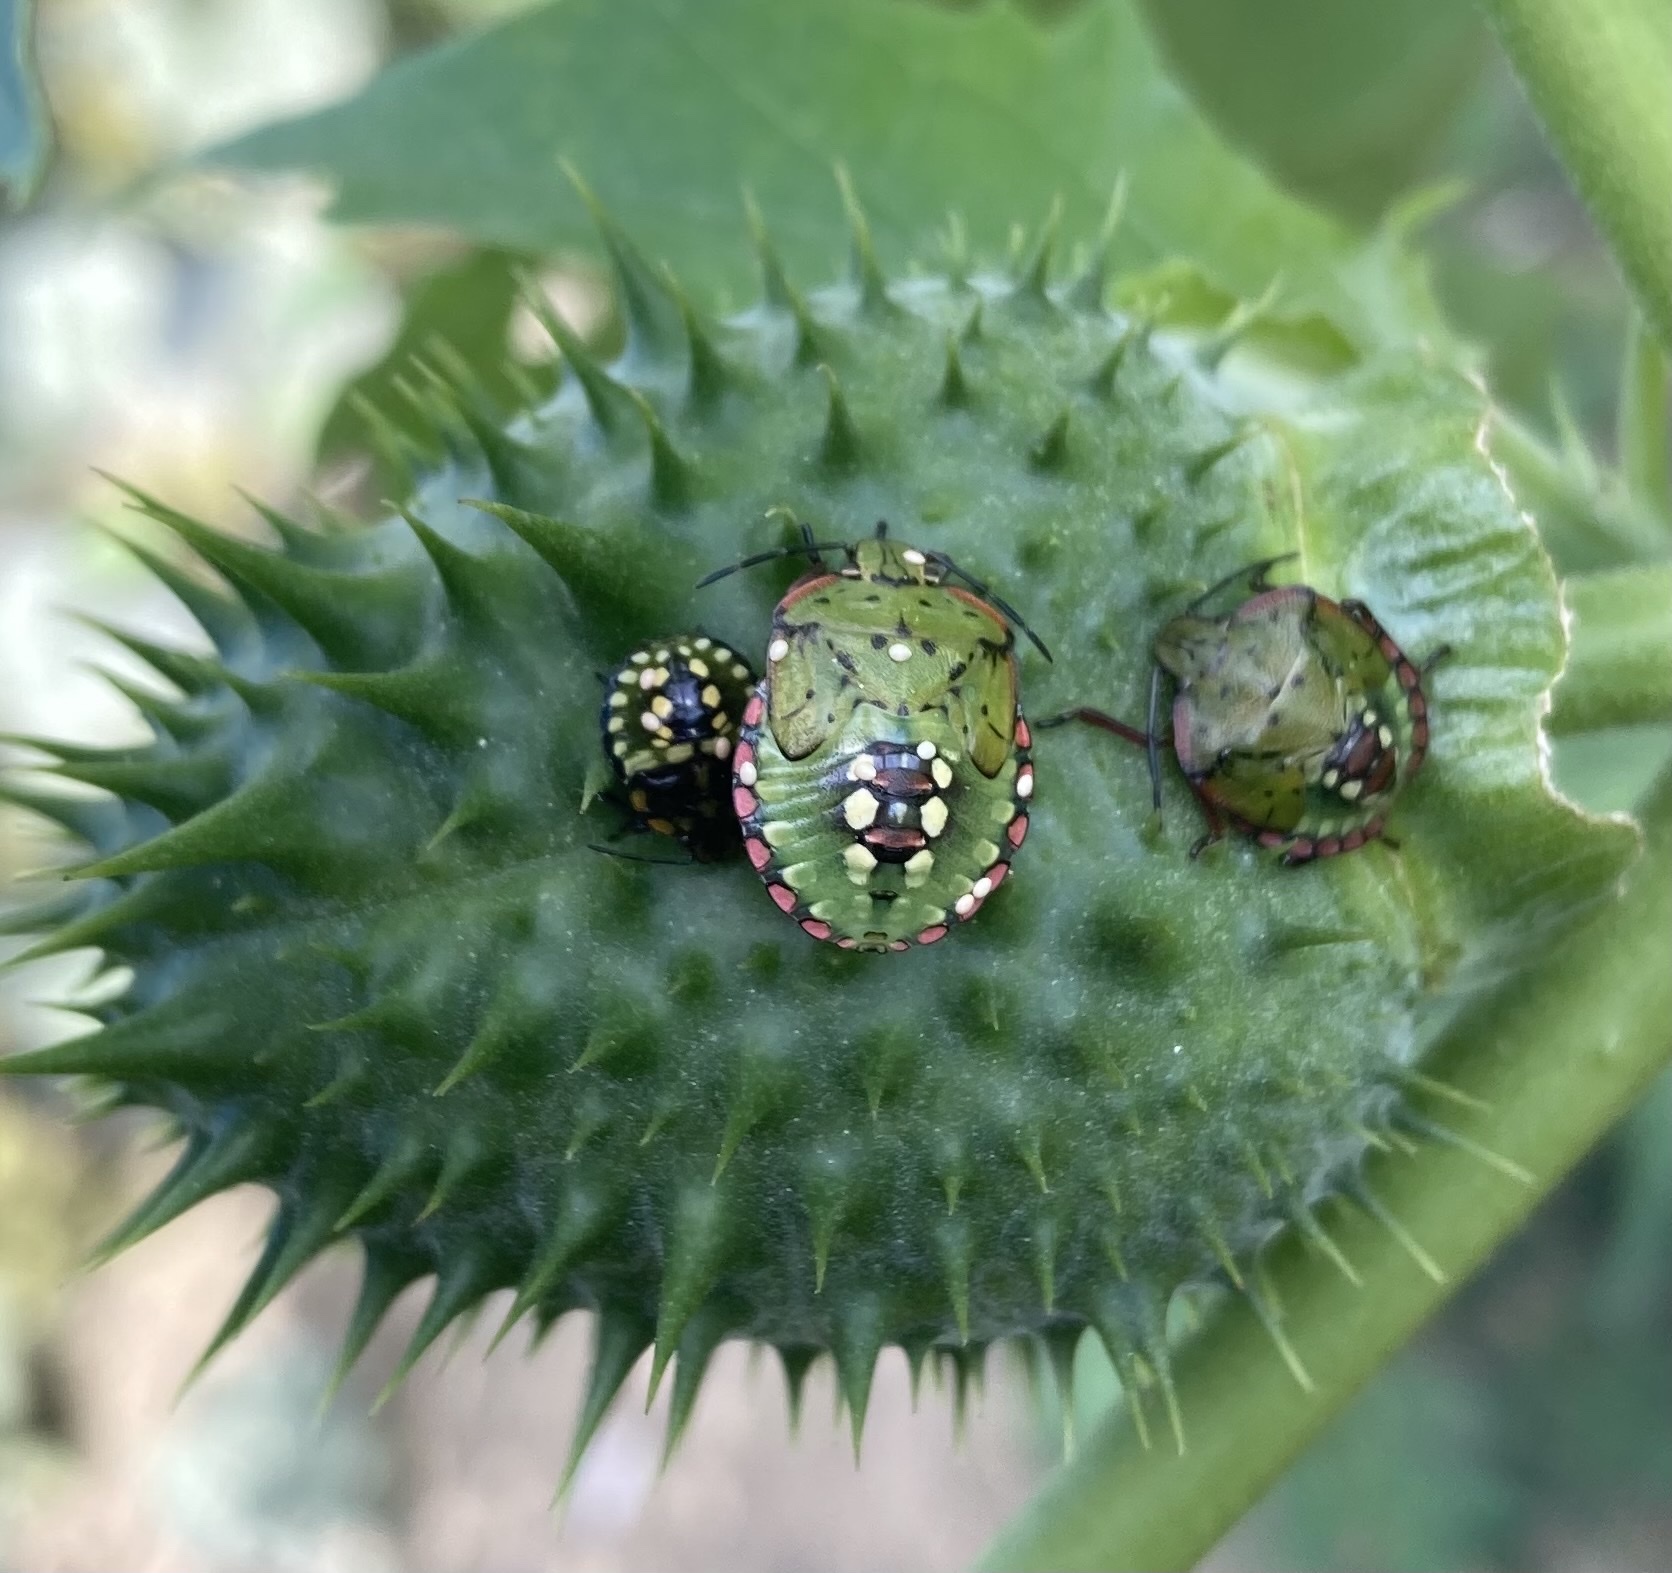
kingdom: Animalia
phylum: Arthropoda
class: Insecta
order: Hemiptera
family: Pentatomidae
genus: Nezara
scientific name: Nezara viridula
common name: Southern green stink bug
